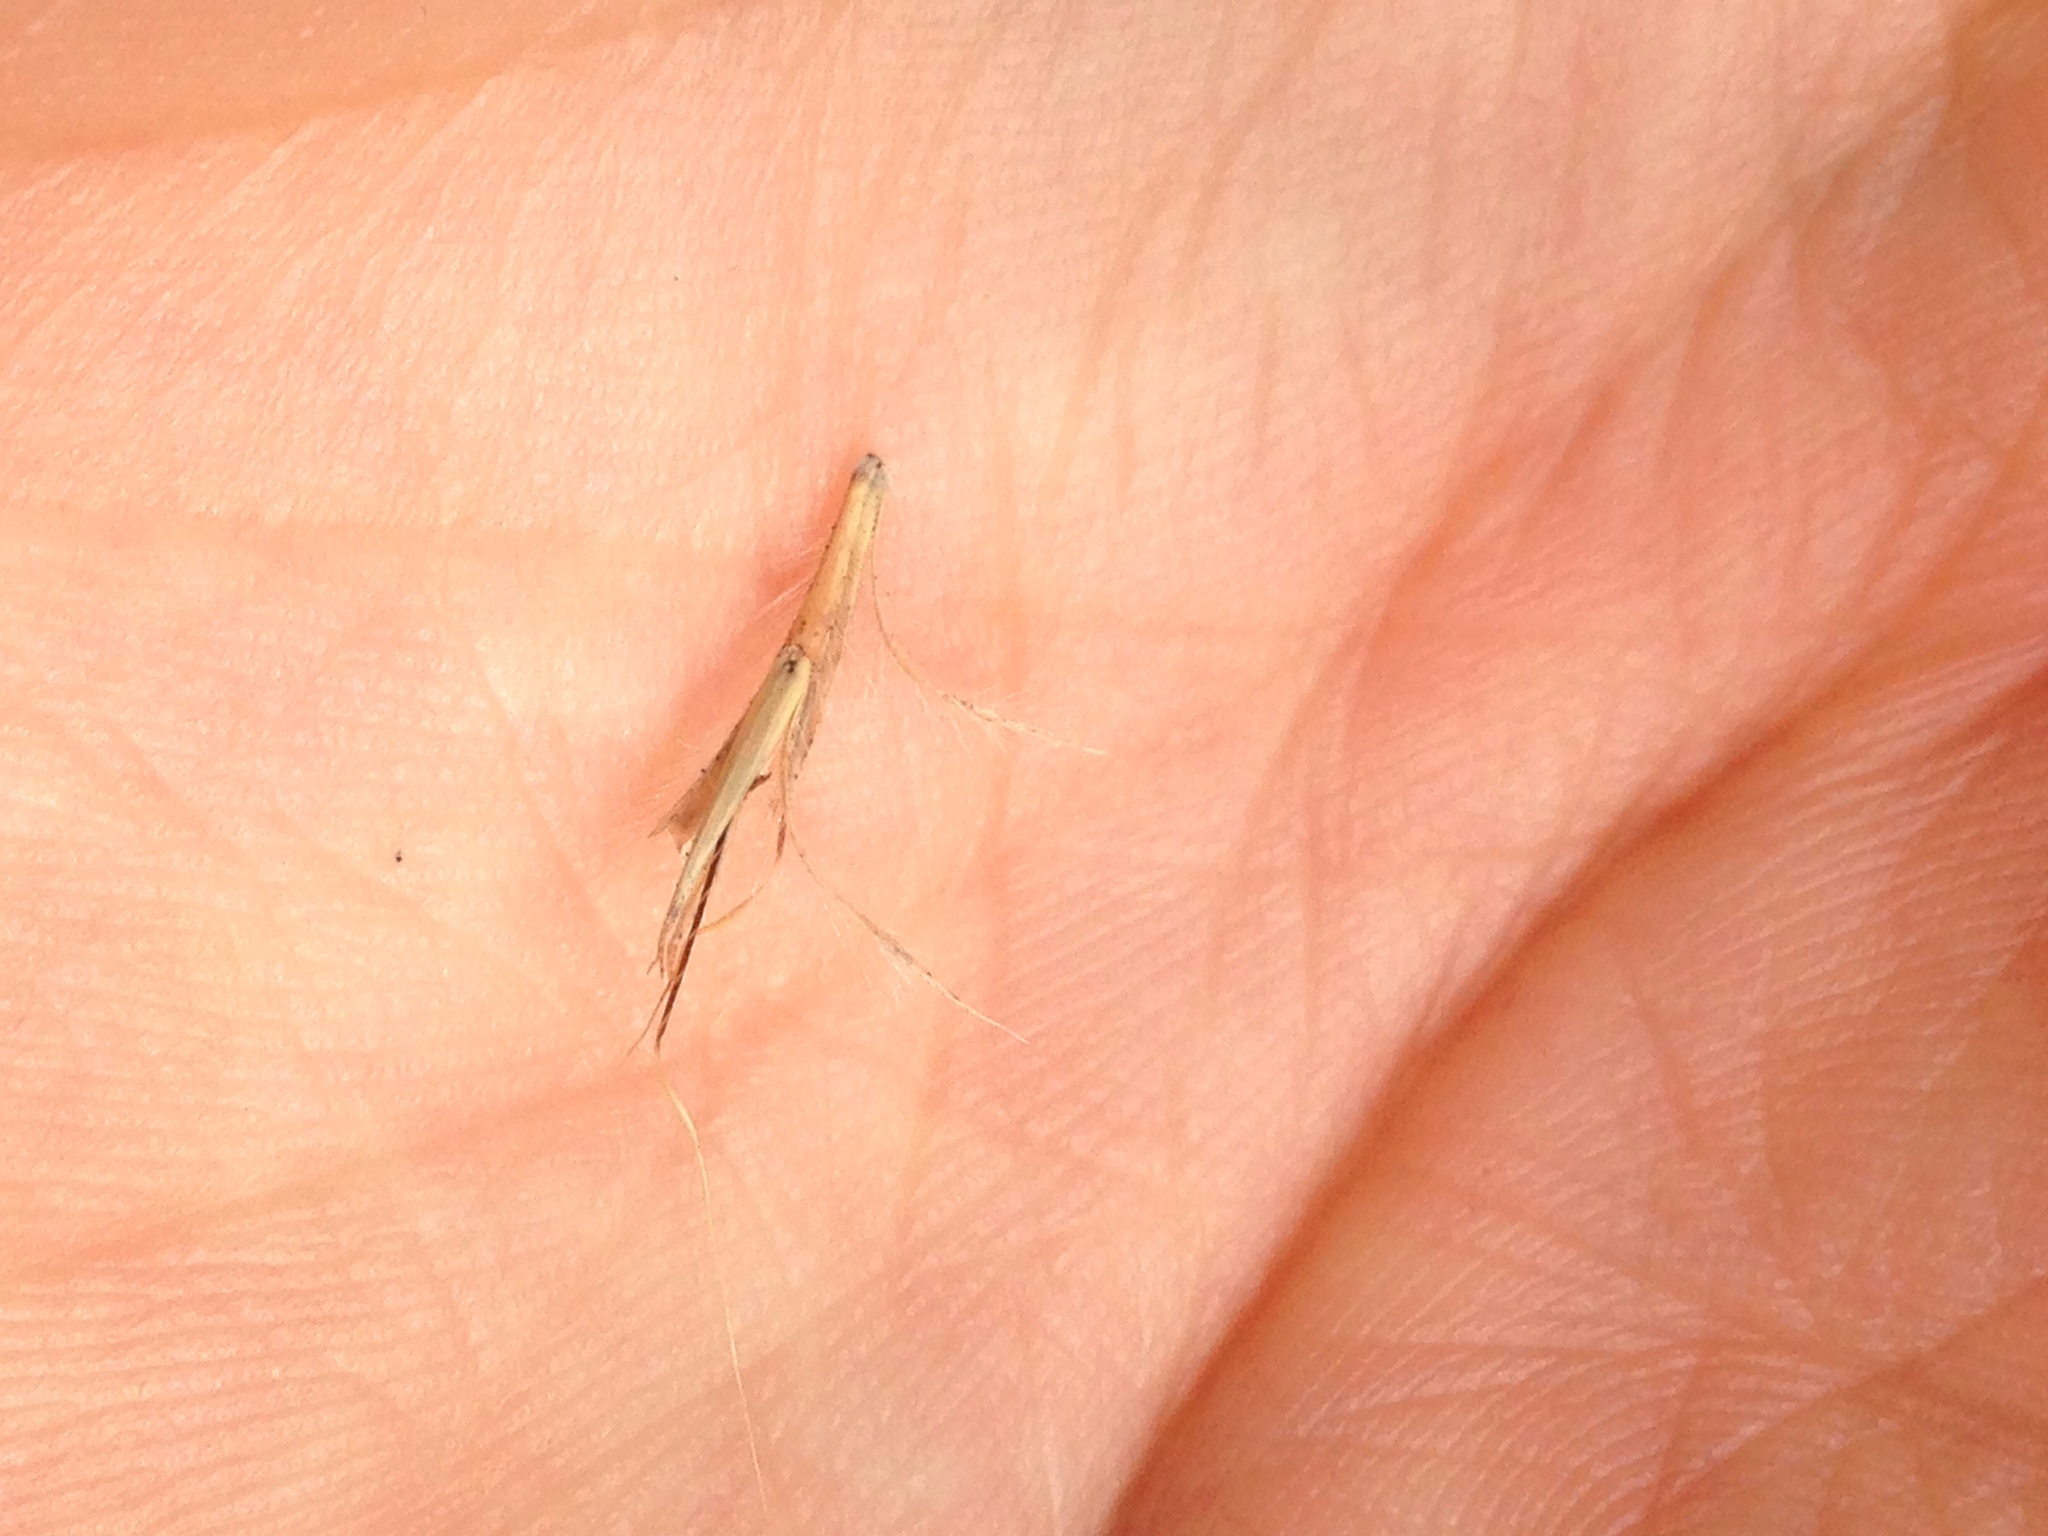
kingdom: Plantae
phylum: Tracheophyta
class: Liliopsida
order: Poales
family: Poaceae
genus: Schizachyrium
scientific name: Schizachyrium scoparium
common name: Little bluestem
